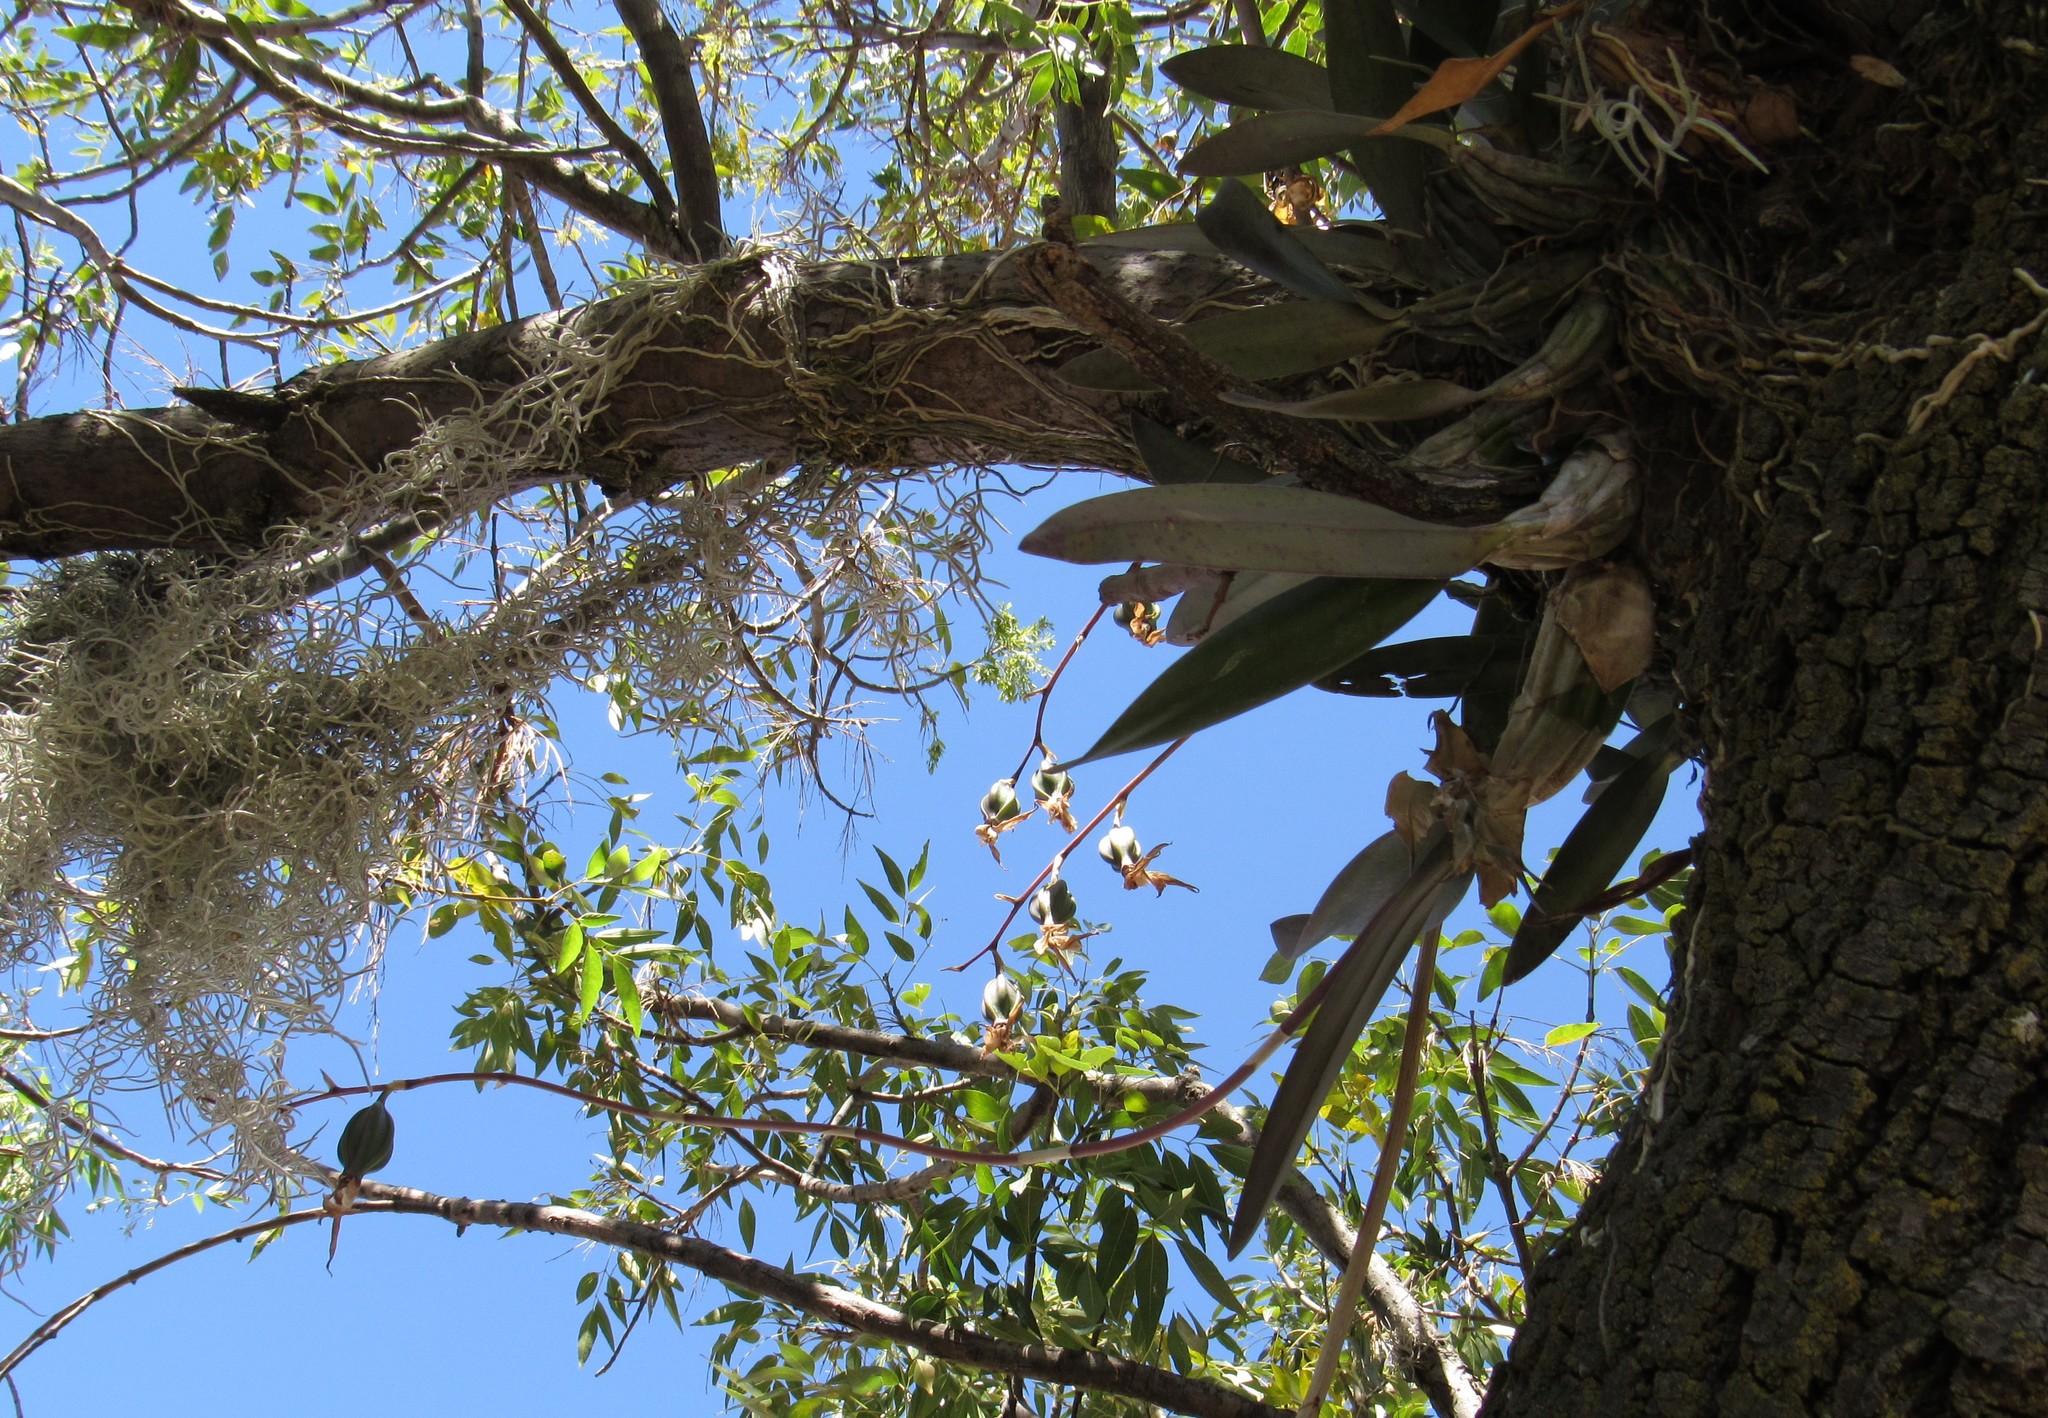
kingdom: Plantae
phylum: Tracheophyta
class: Liliopsida
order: Asparagales
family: Orchidaceae
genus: Laelia
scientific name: Laelia autumnalis
